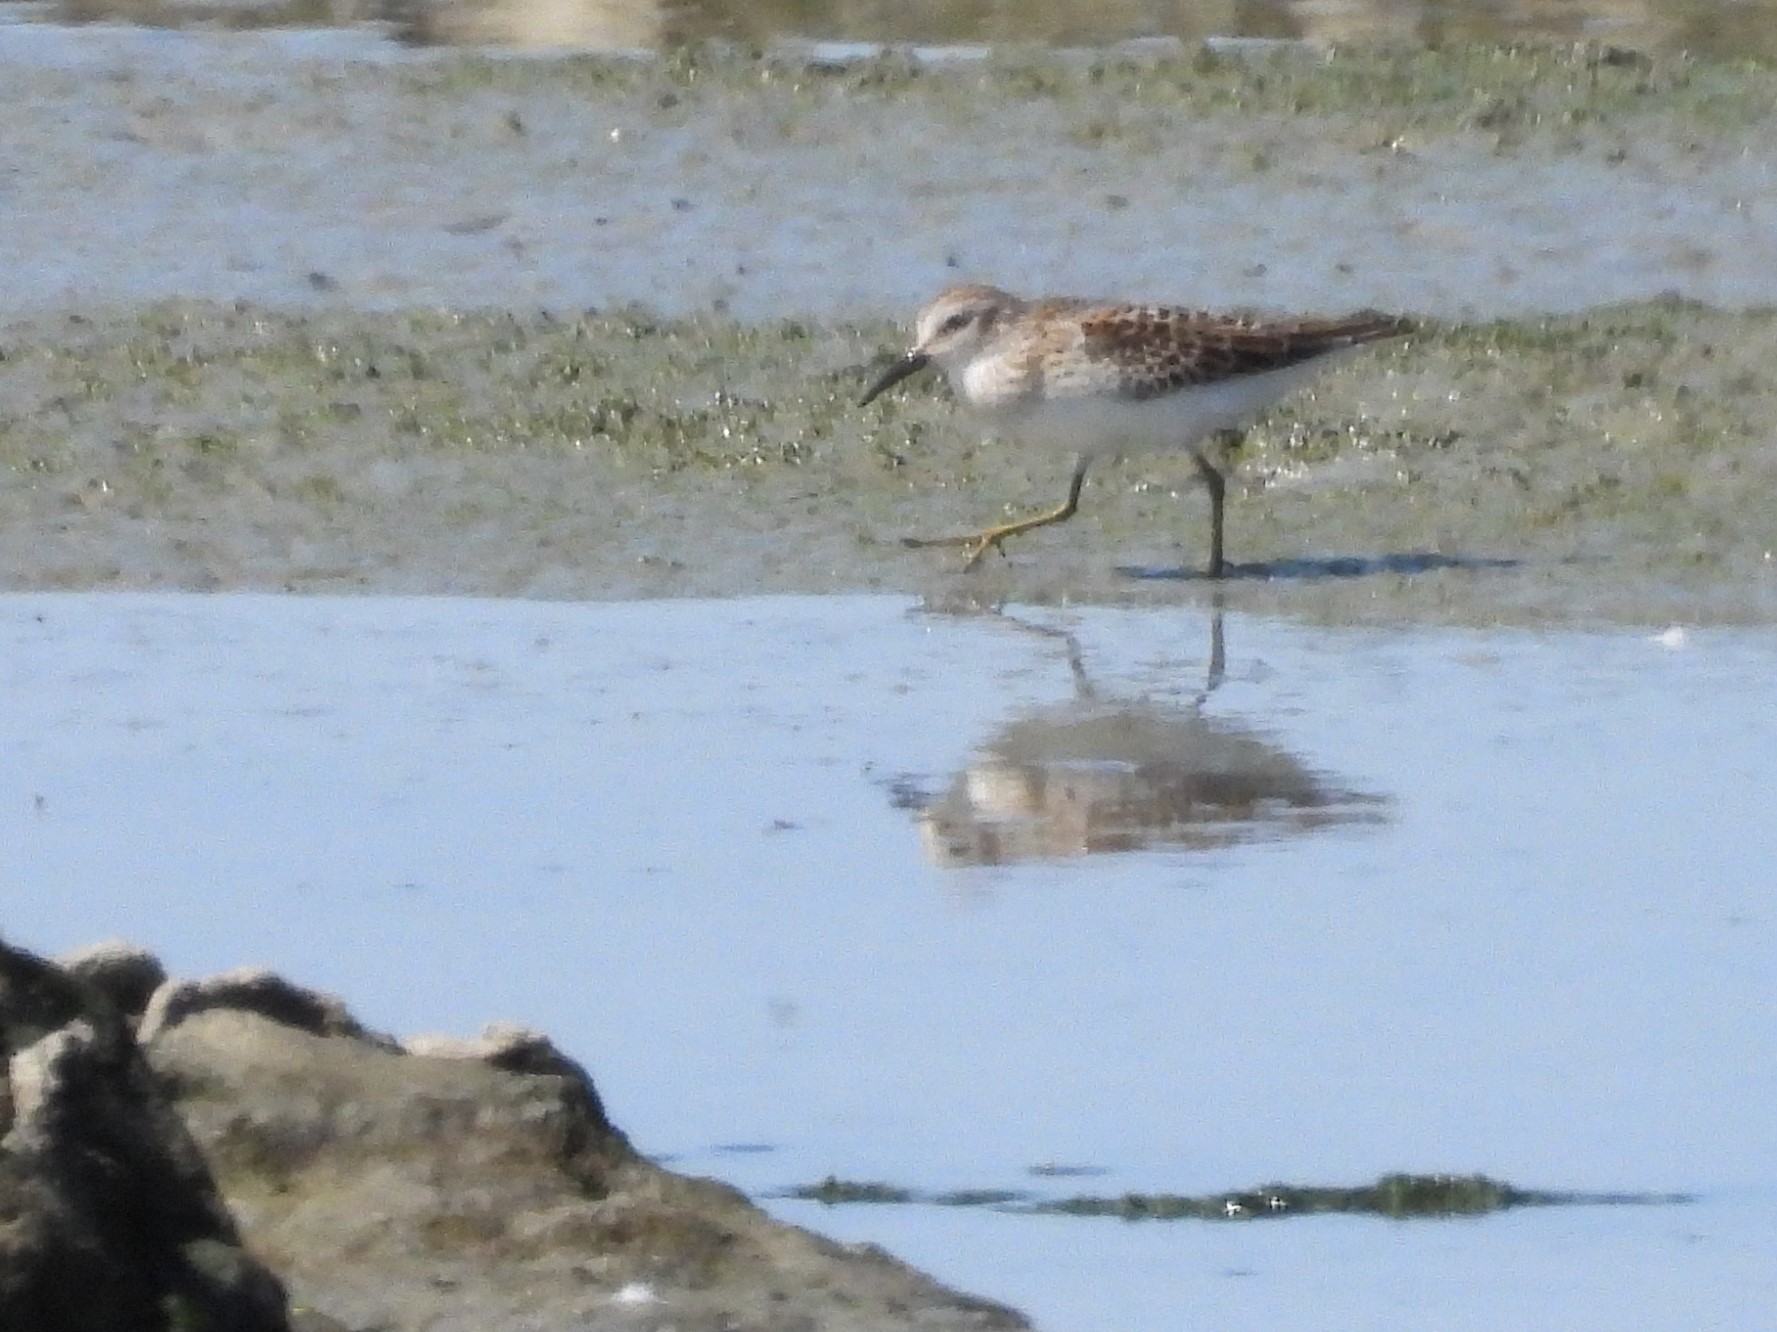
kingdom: Animalia
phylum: Chordata
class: Aves
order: Charadriiformes
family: Scolopacidae
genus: Calidris
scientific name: Calidris minutilla
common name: Least sandpiper
